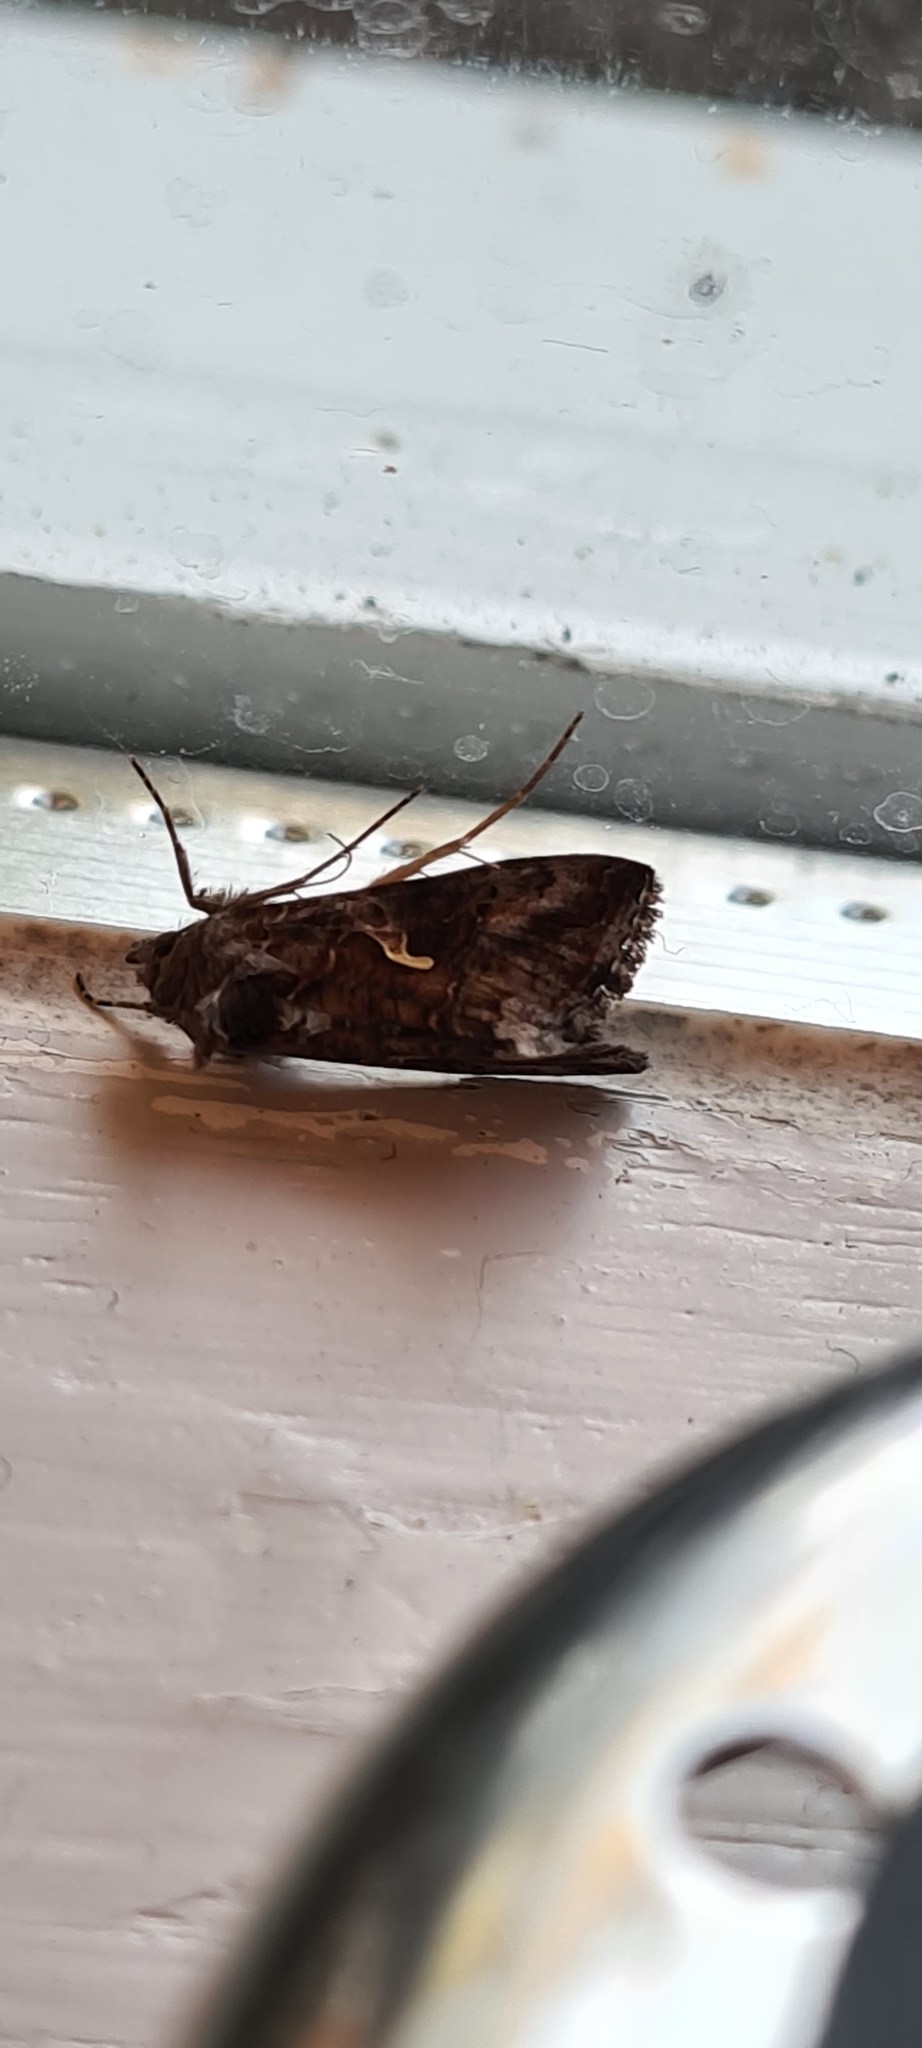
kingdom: Animalia
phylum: Arthropoda
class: Insecta
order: Lepidoptera
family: Noctuidae
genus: Autographa
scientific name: Autographa gamma
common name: Silver y
